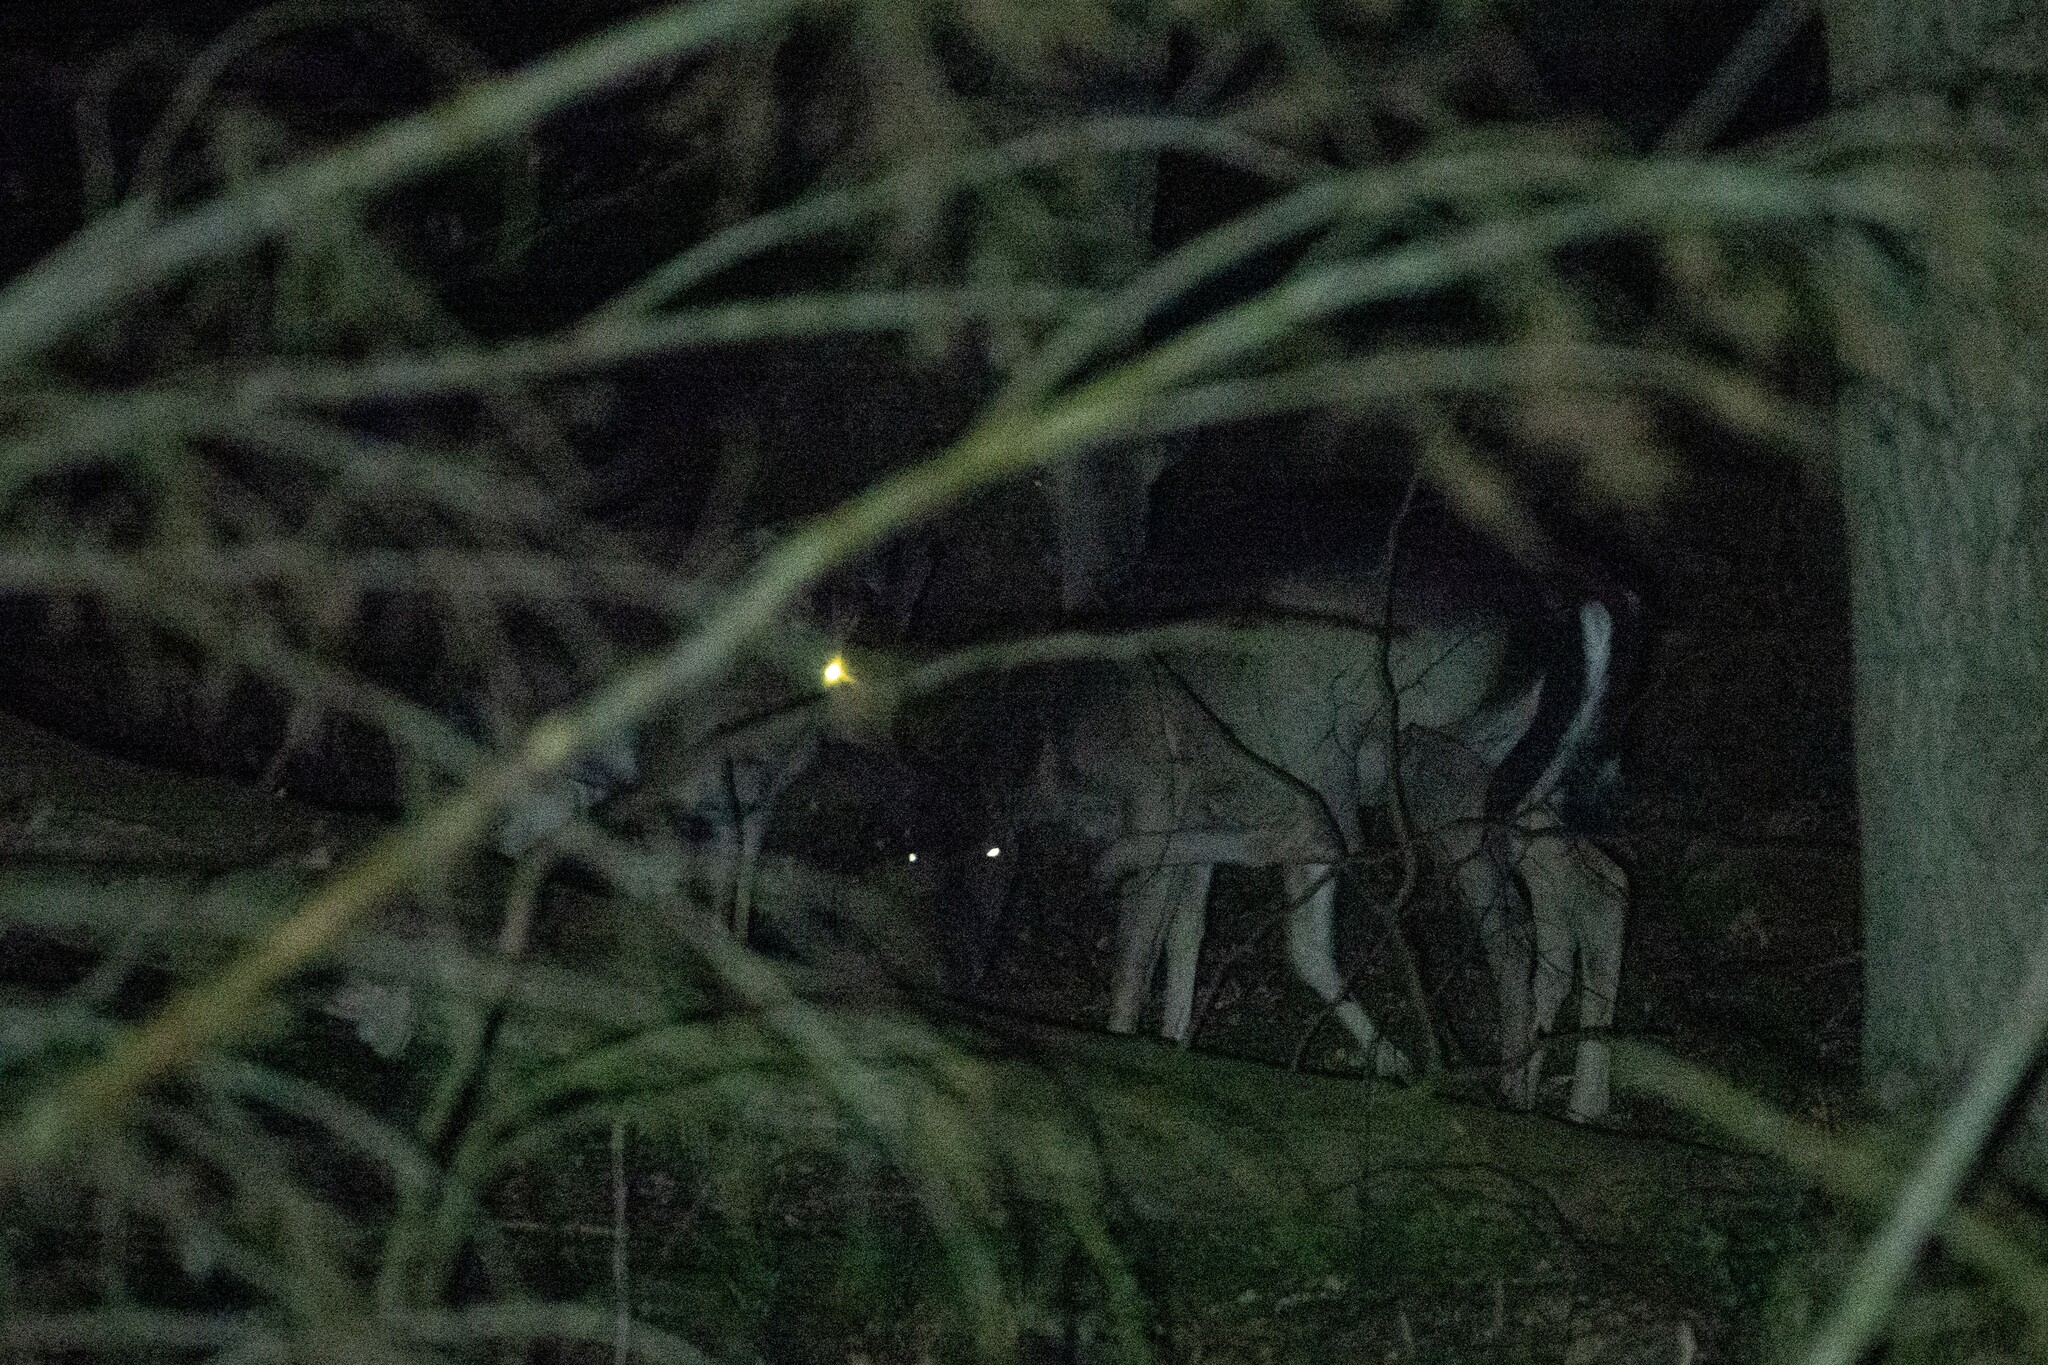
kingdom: Animalia
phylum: Chordata
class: Mammalia
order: Artiodactyla
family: Cervidae
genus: Dama
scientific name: Dama dama
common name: Fallow deer
